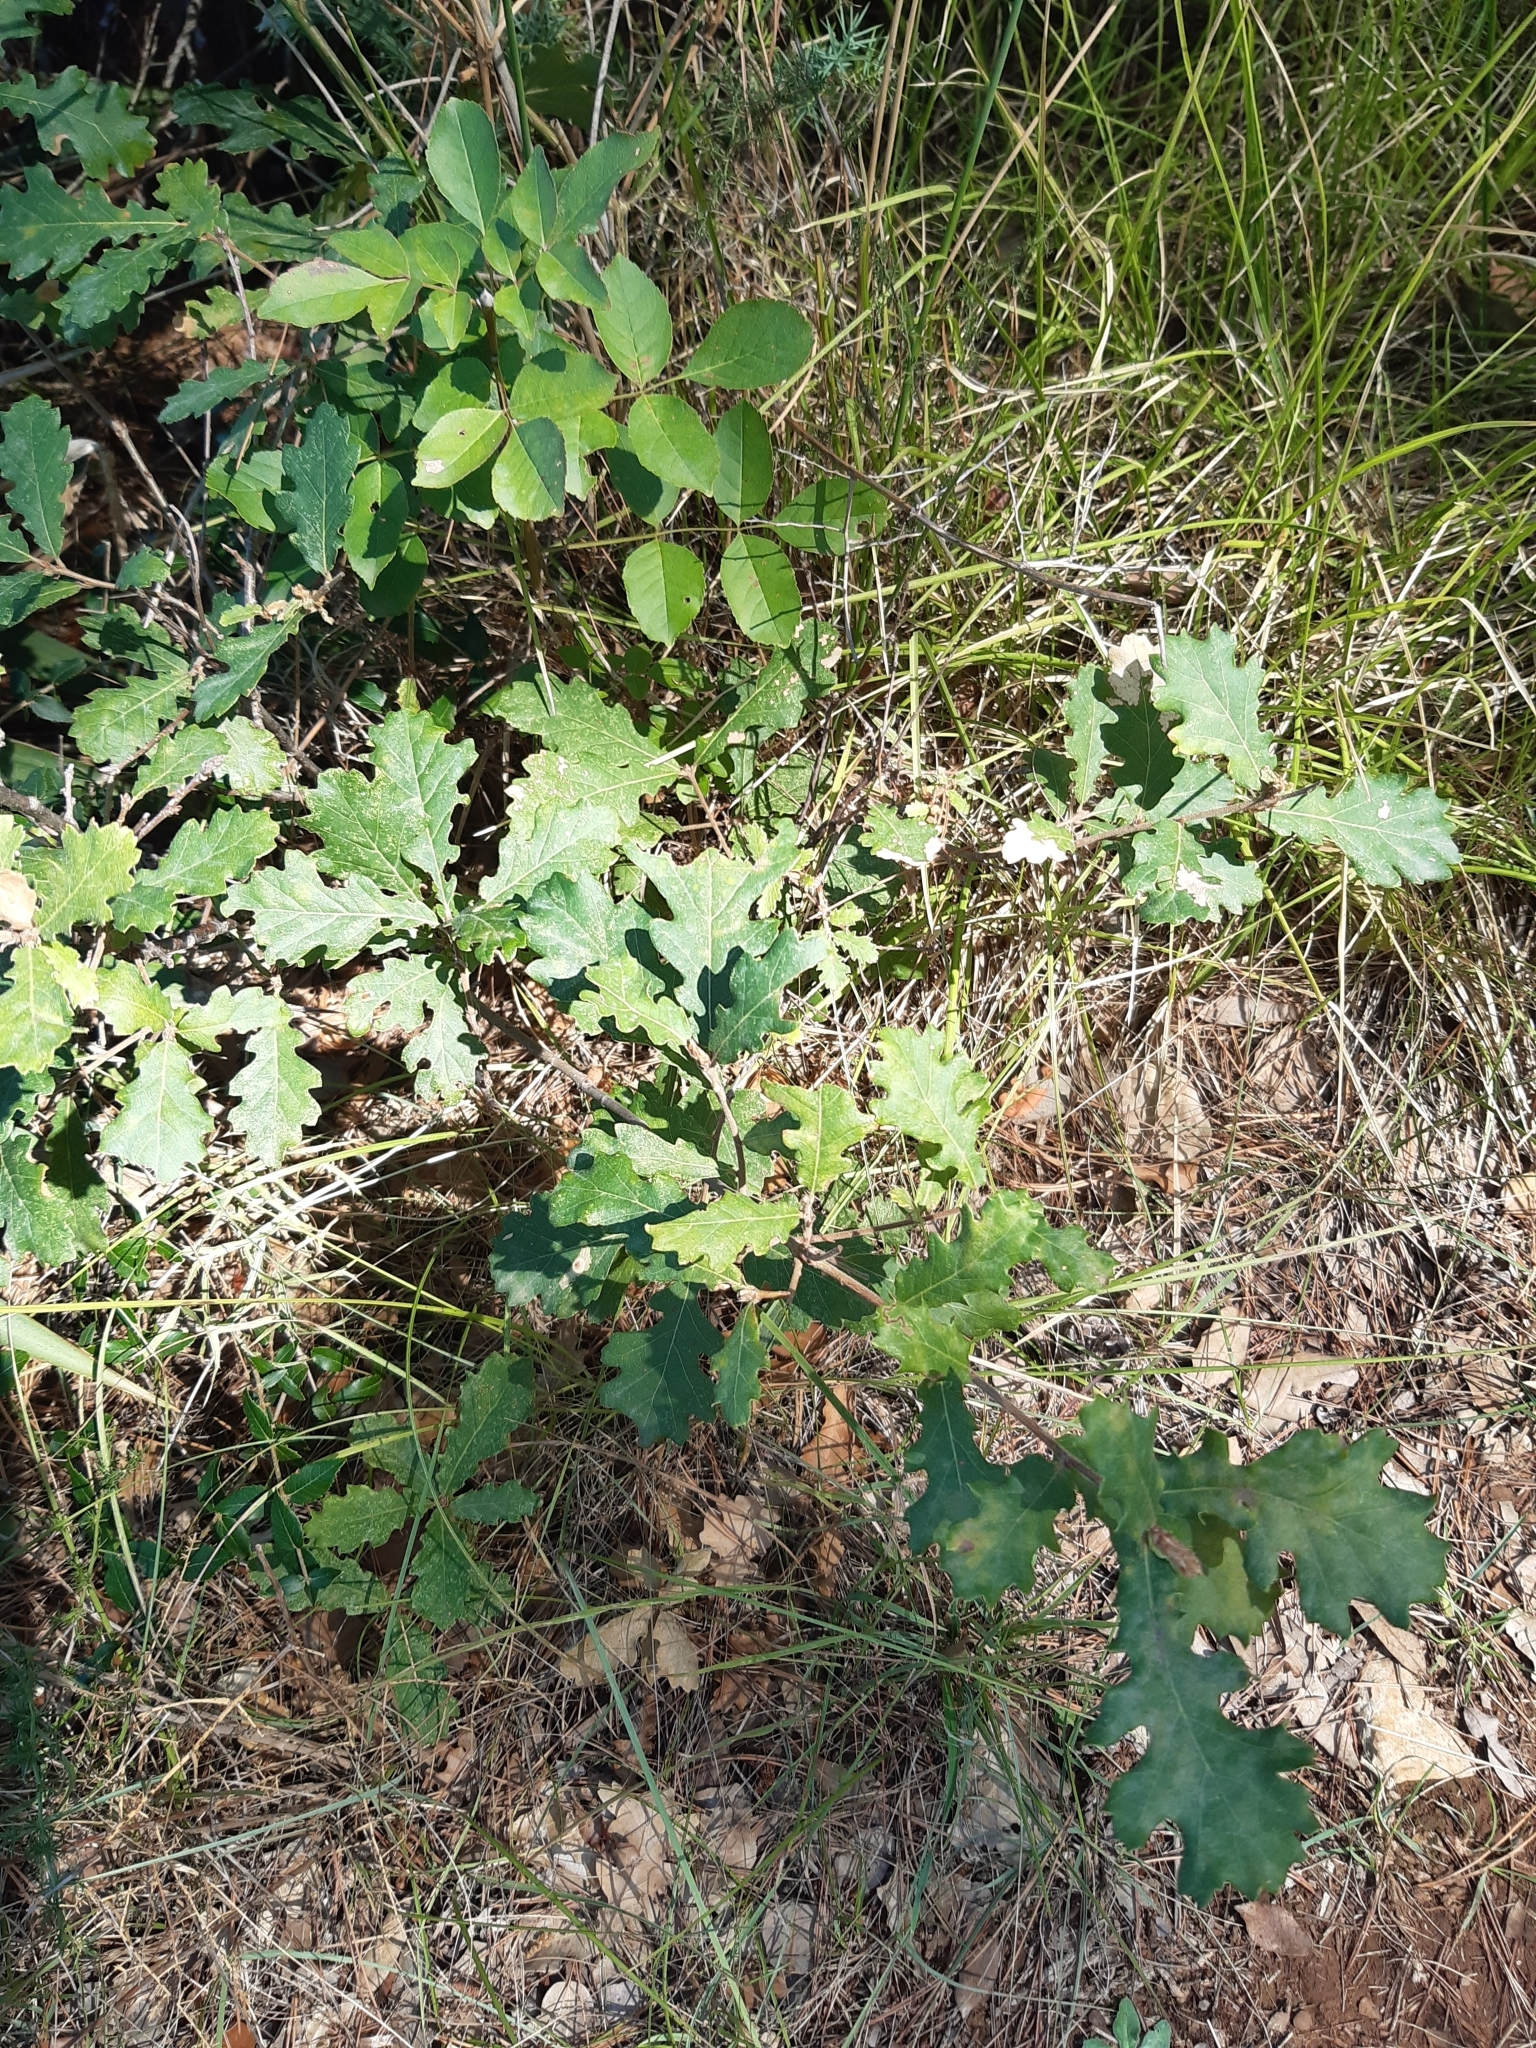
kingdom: Plantae
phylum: Tracheophyta
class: Magnoliopsida
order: Fagales
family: Fagaceae
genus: Quercus
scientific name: Quercus pubescens
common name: Downy oak
